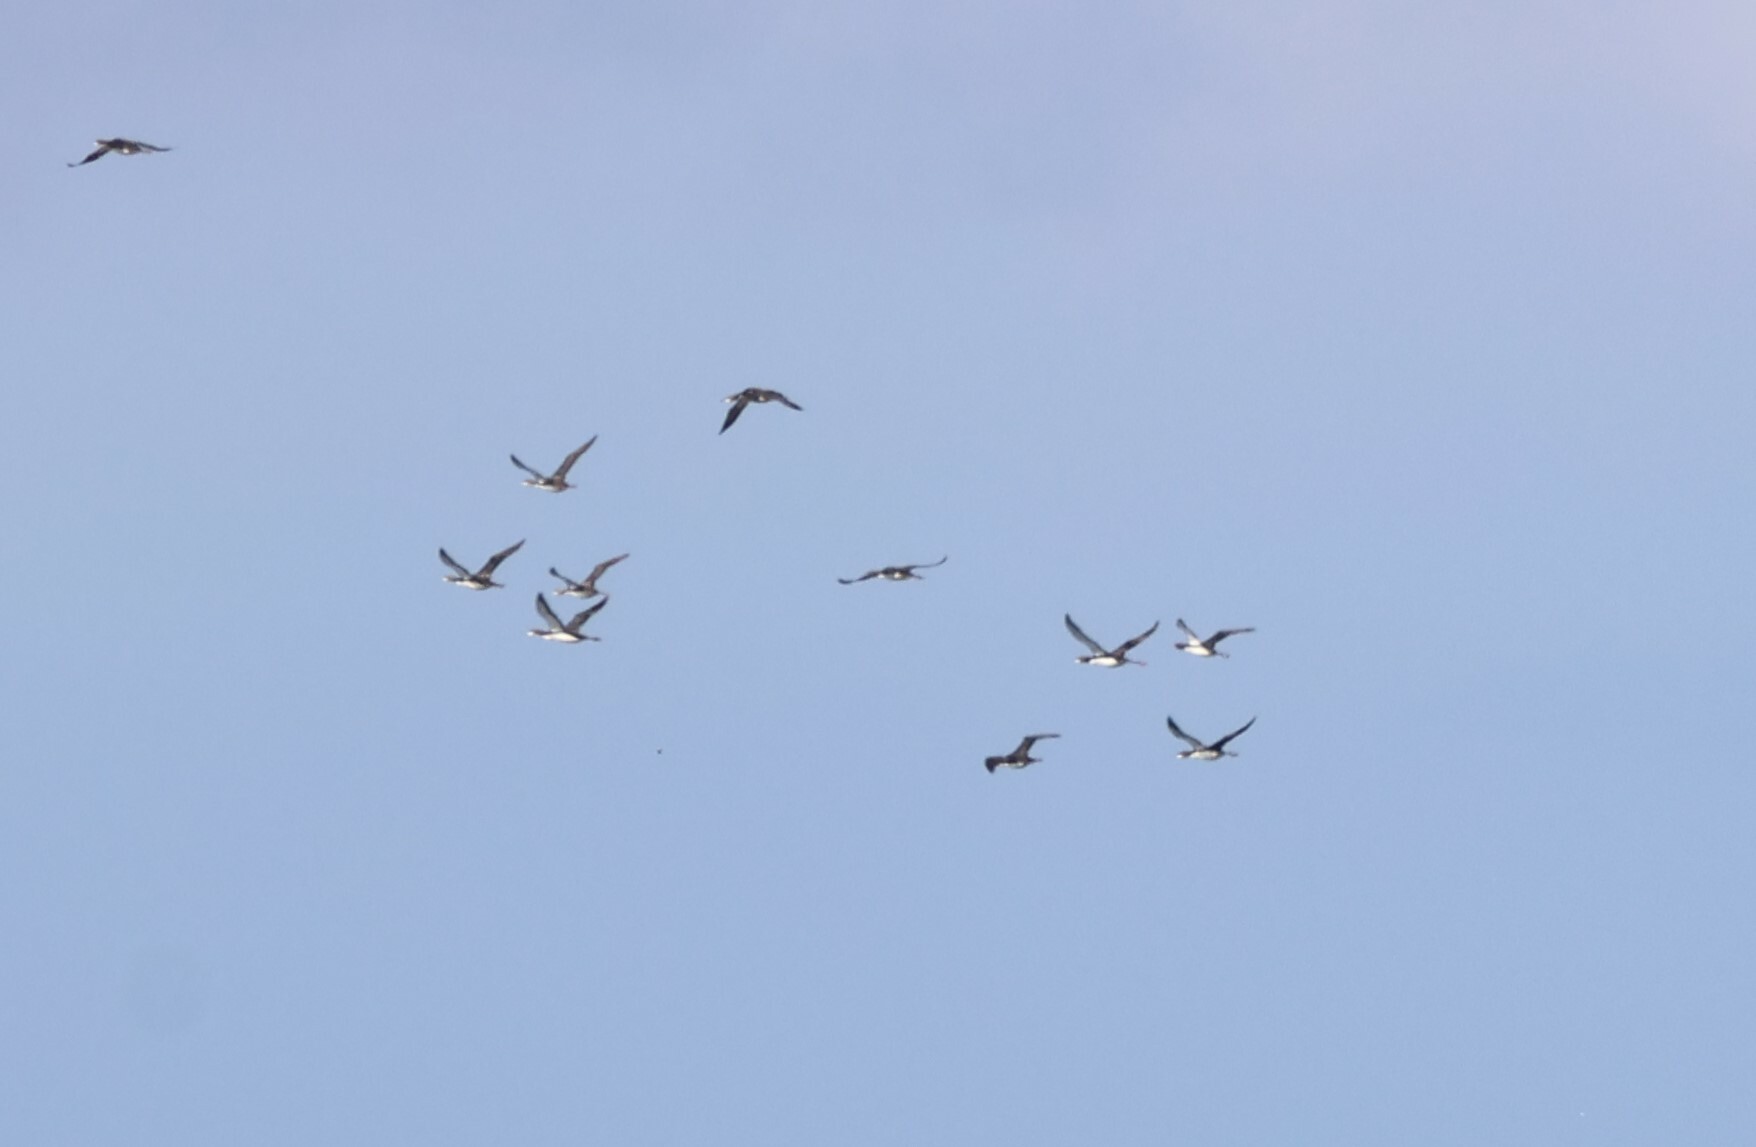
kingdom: Animalia
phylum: Chordata
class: Aves
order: Gaviiformes
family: Gaviidae
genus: Gavia
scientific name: Gavia pacifica
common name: Pacific loon
